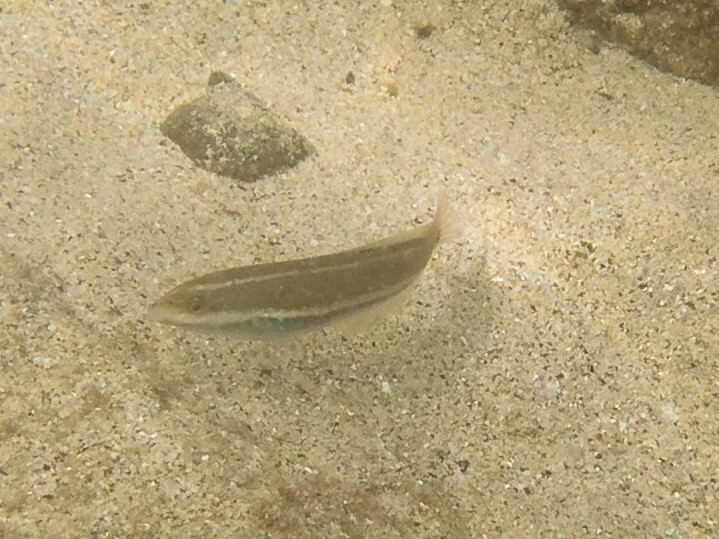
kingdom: Animalia
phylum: Chordata
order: Perciformes
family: Labridae
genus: Halichoeres
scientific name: Halichoeres dispilus
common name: Chameleon wrasse
